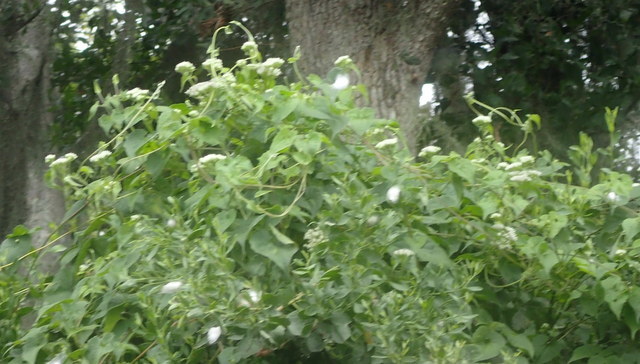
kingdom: Plantae
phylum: Tracheophyta
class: Magnoliopsida
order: Asterales
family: Asteraceae
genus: Mikania
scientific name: Mikania scandens
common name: Climbing hempvine
